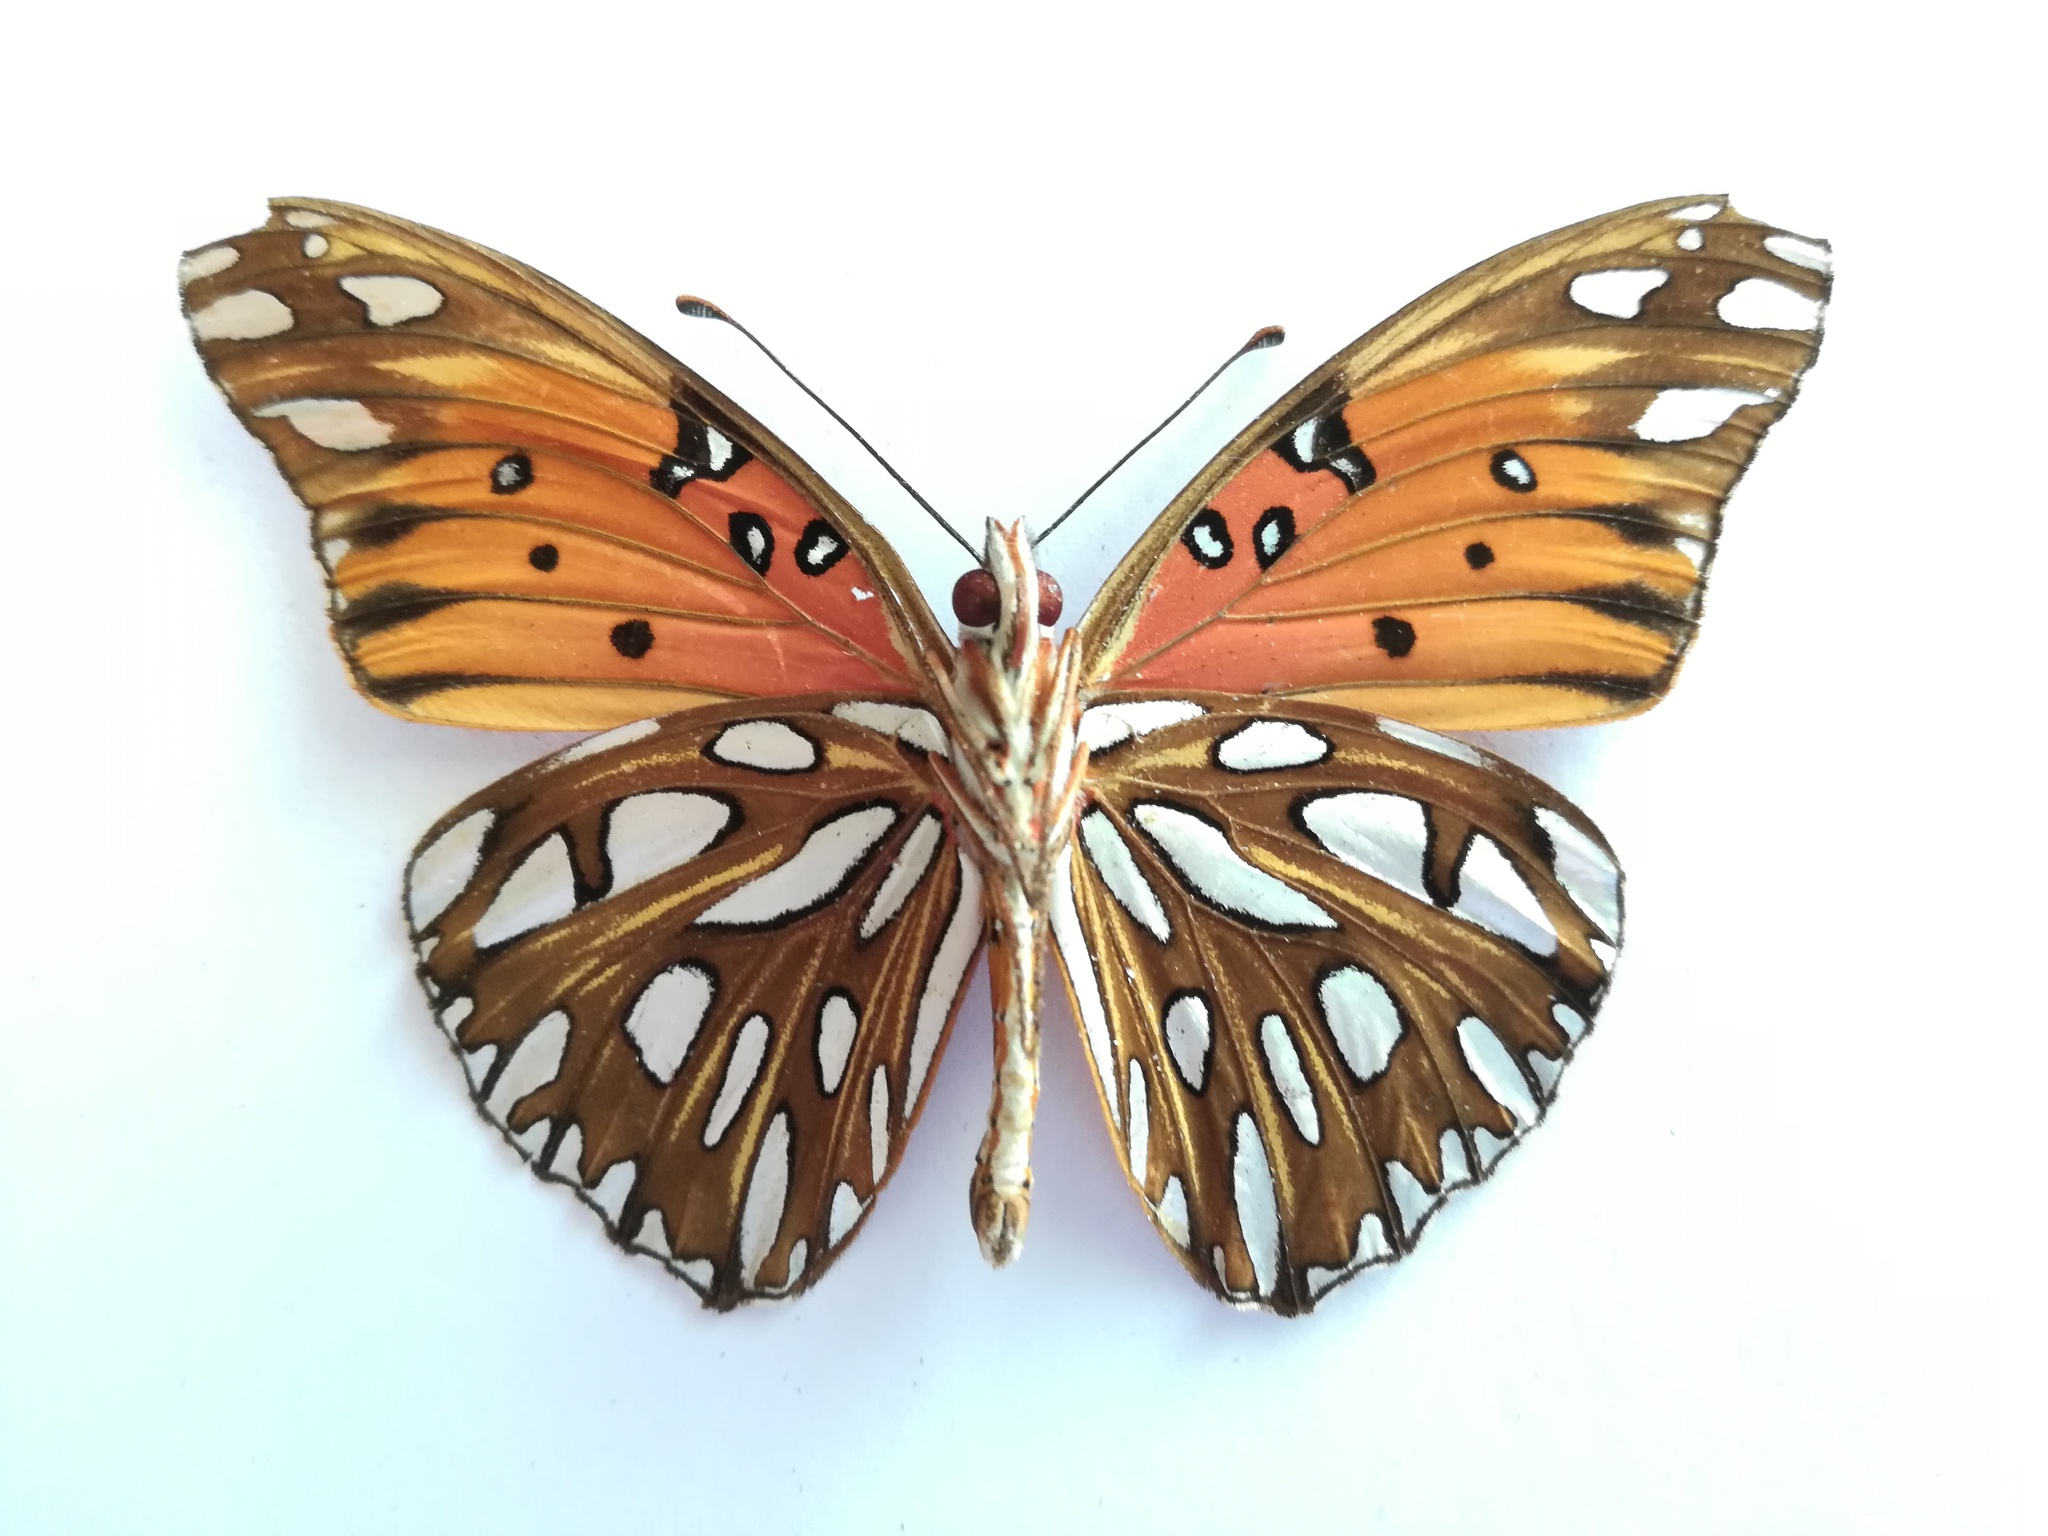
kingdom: Animalia
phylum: Arthropoda
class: Insecta
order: Lepidoptera
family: Nymphalidae
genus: Dione
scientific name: Dione vanillae
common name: Gulf fritillary
